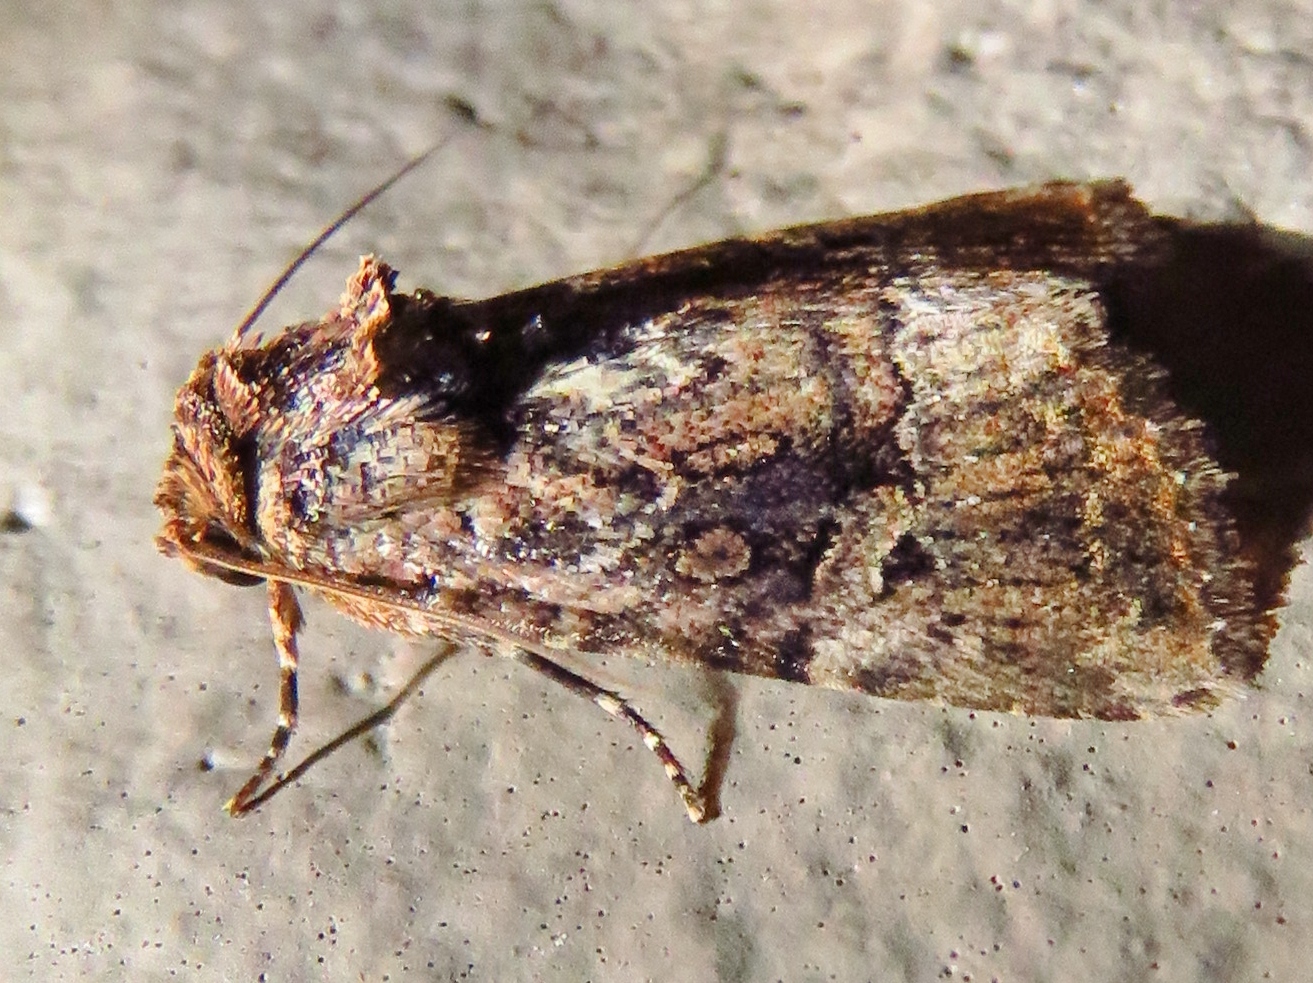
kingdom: Animalia
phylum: Arthropoda
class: Insecta
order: Lepidoptera
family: Noctuidae
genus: Elaphria
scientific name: Elaphria chalcedonia
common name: Chalcedony midget
